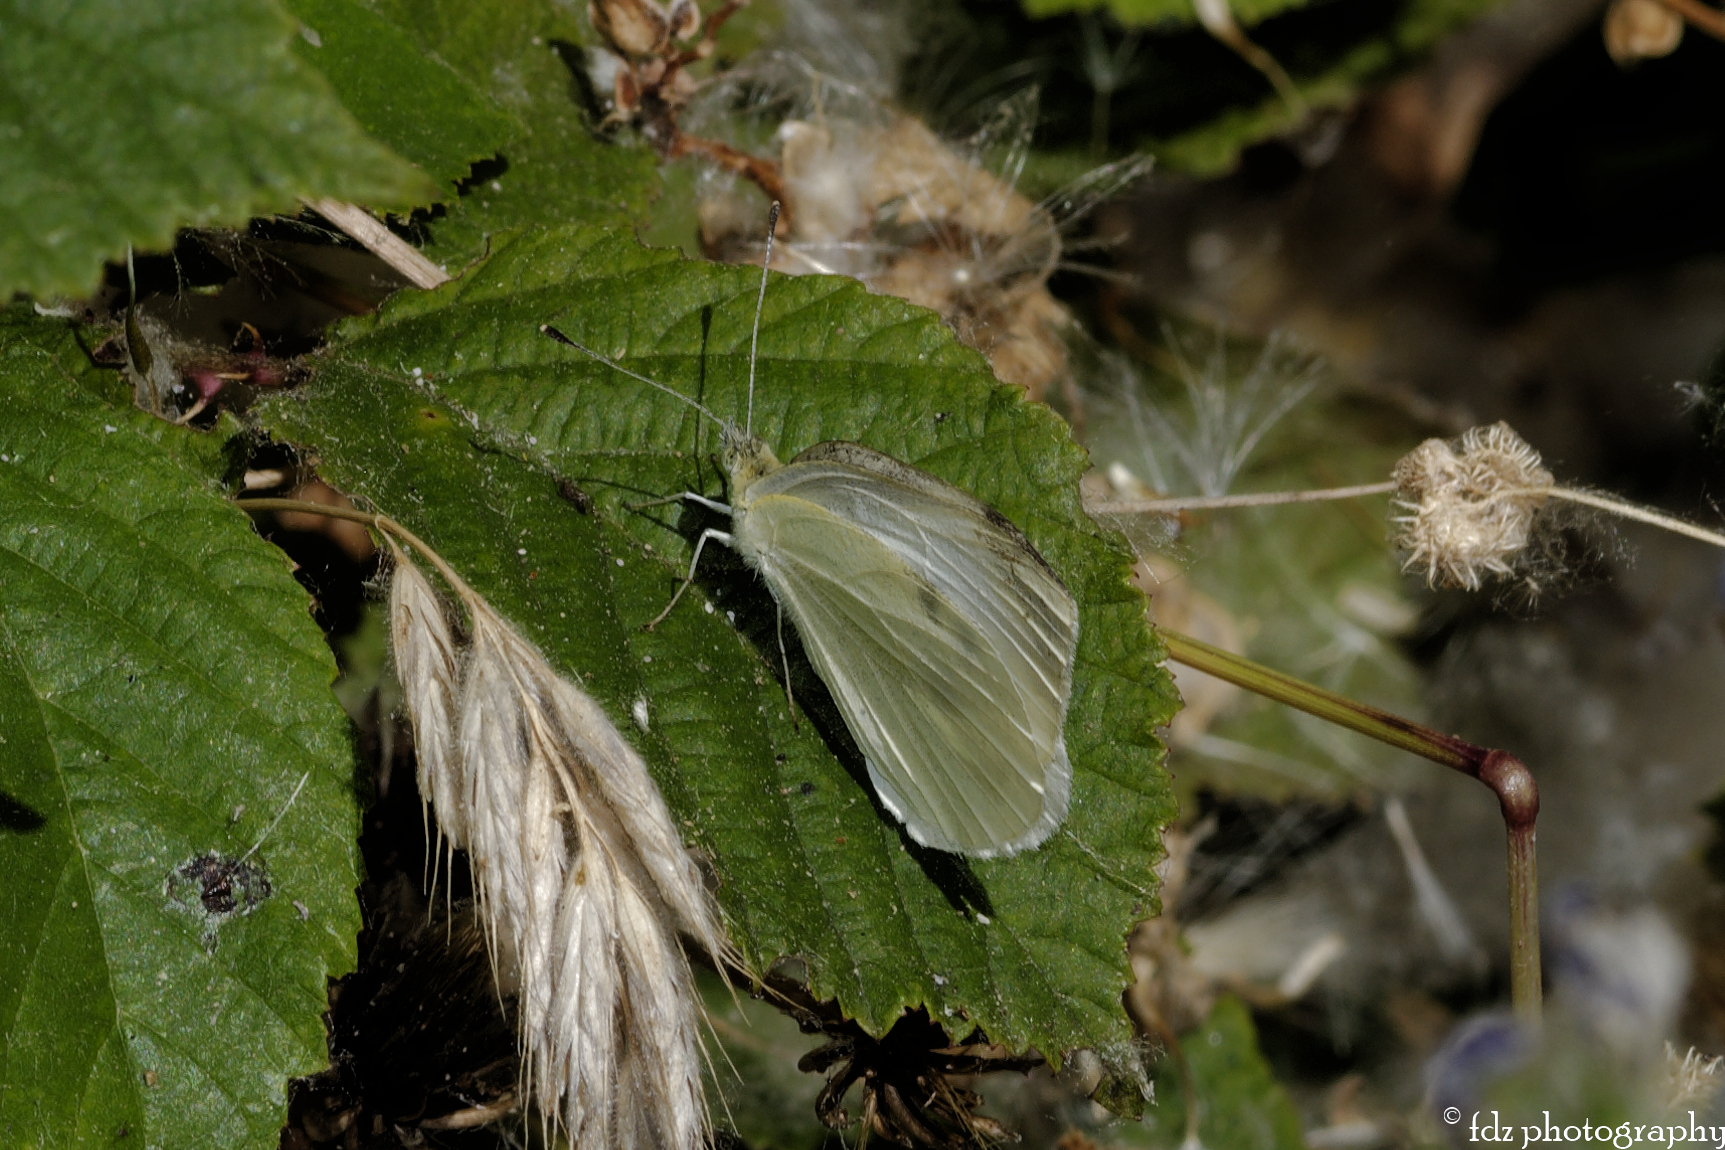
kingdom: Animalia
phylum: Arthropoda
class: Insecta
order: Lepidoptera
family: Pieridae
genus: Pieris
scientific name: Pieris rapae
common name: Small white
